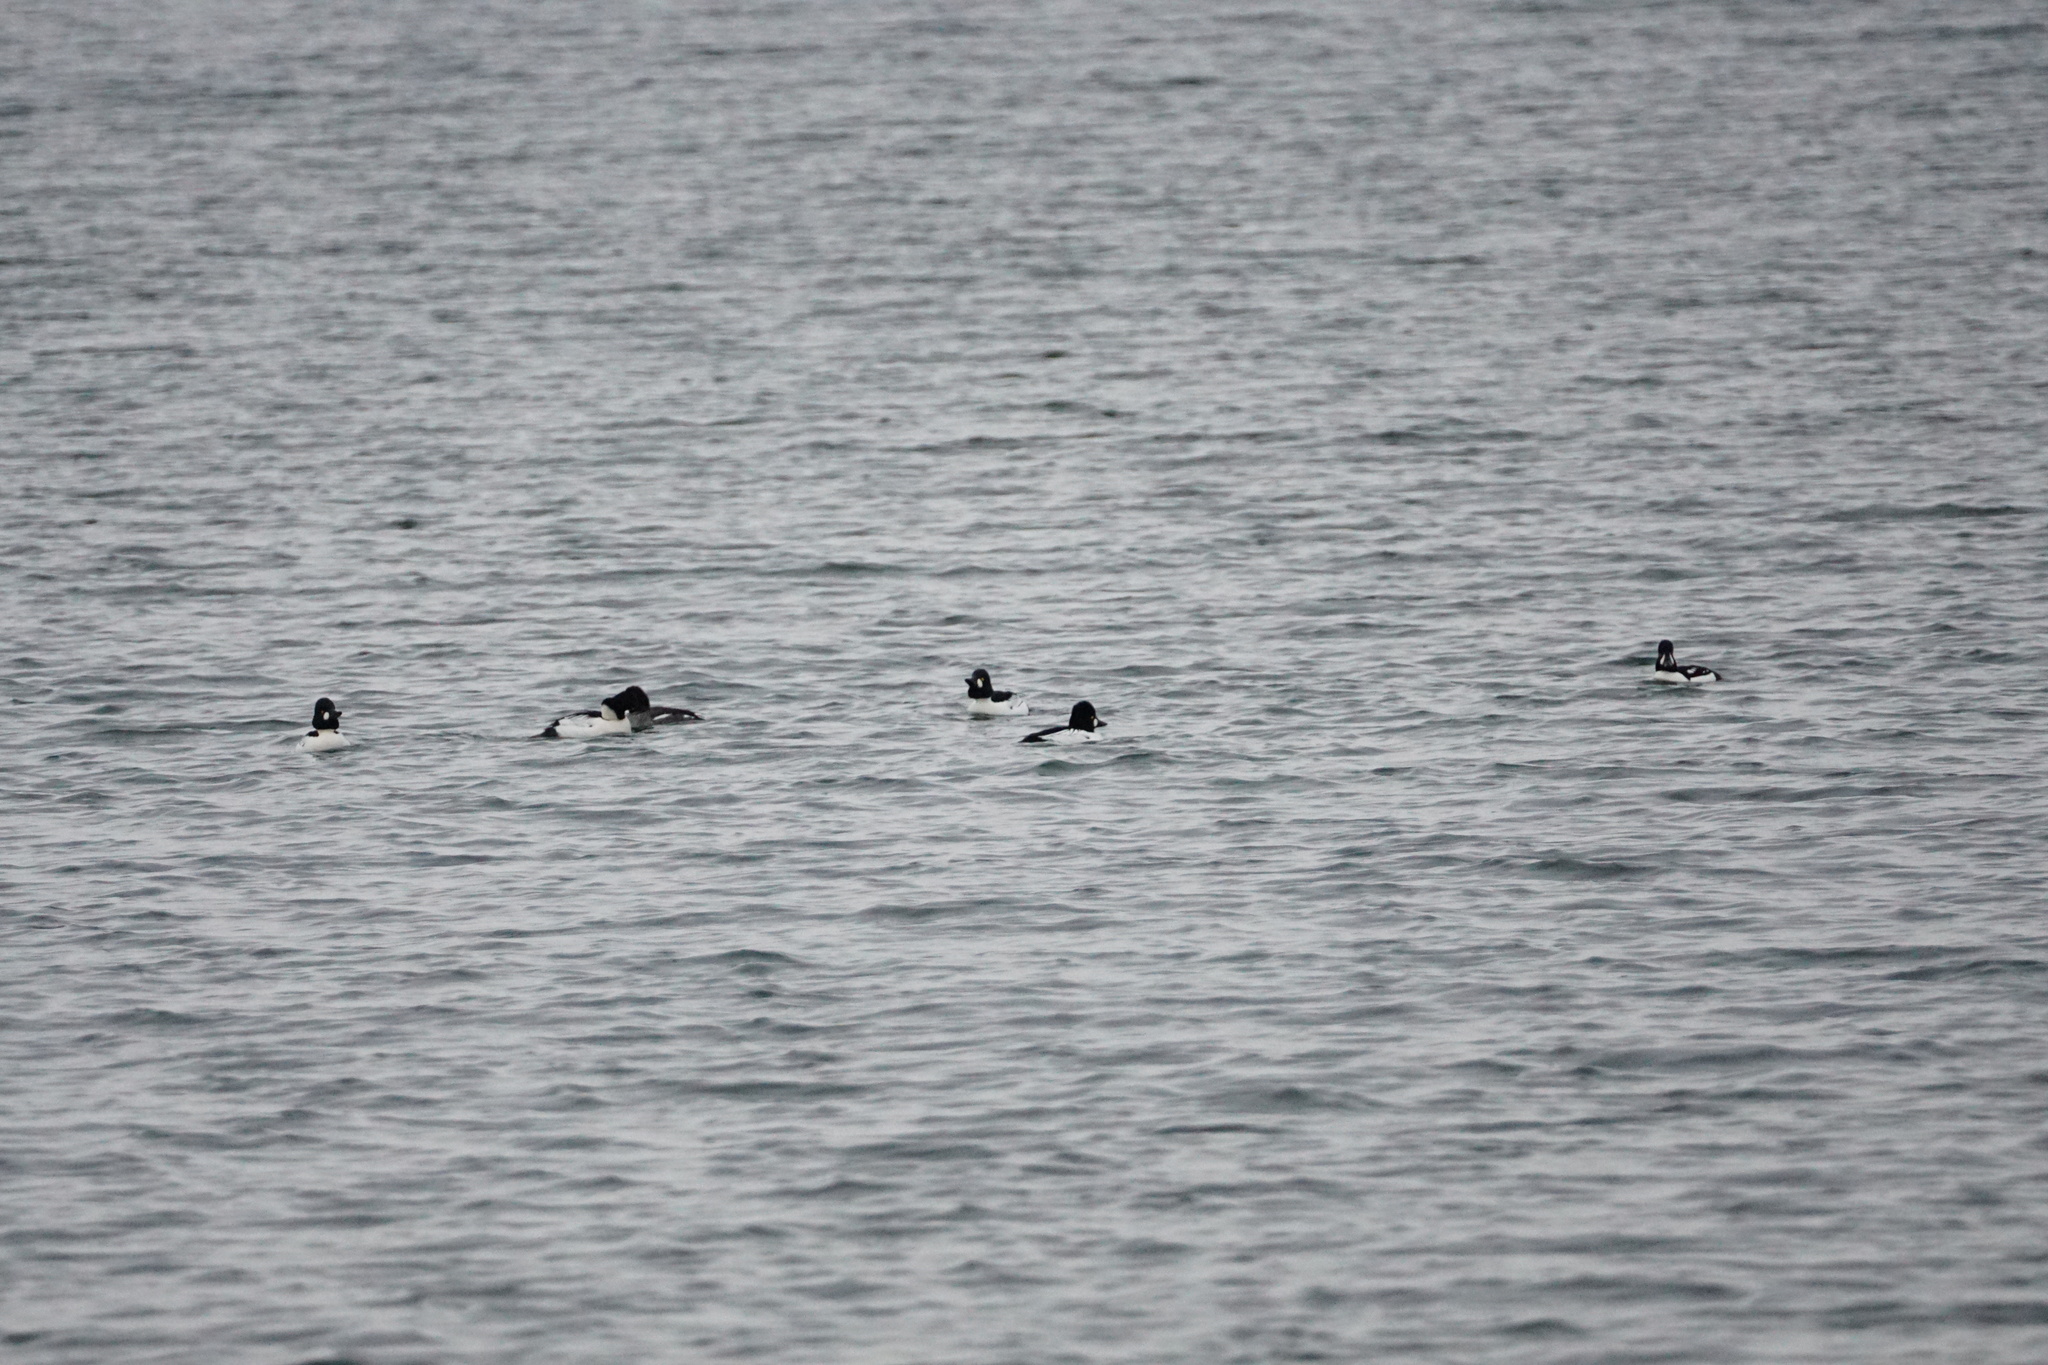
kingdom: Animalia
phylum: Chordata
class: Aves
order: Anseriformes
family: Anatidae
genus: Bucephala
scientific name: Bucephala clangula
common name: Common goldeneye
